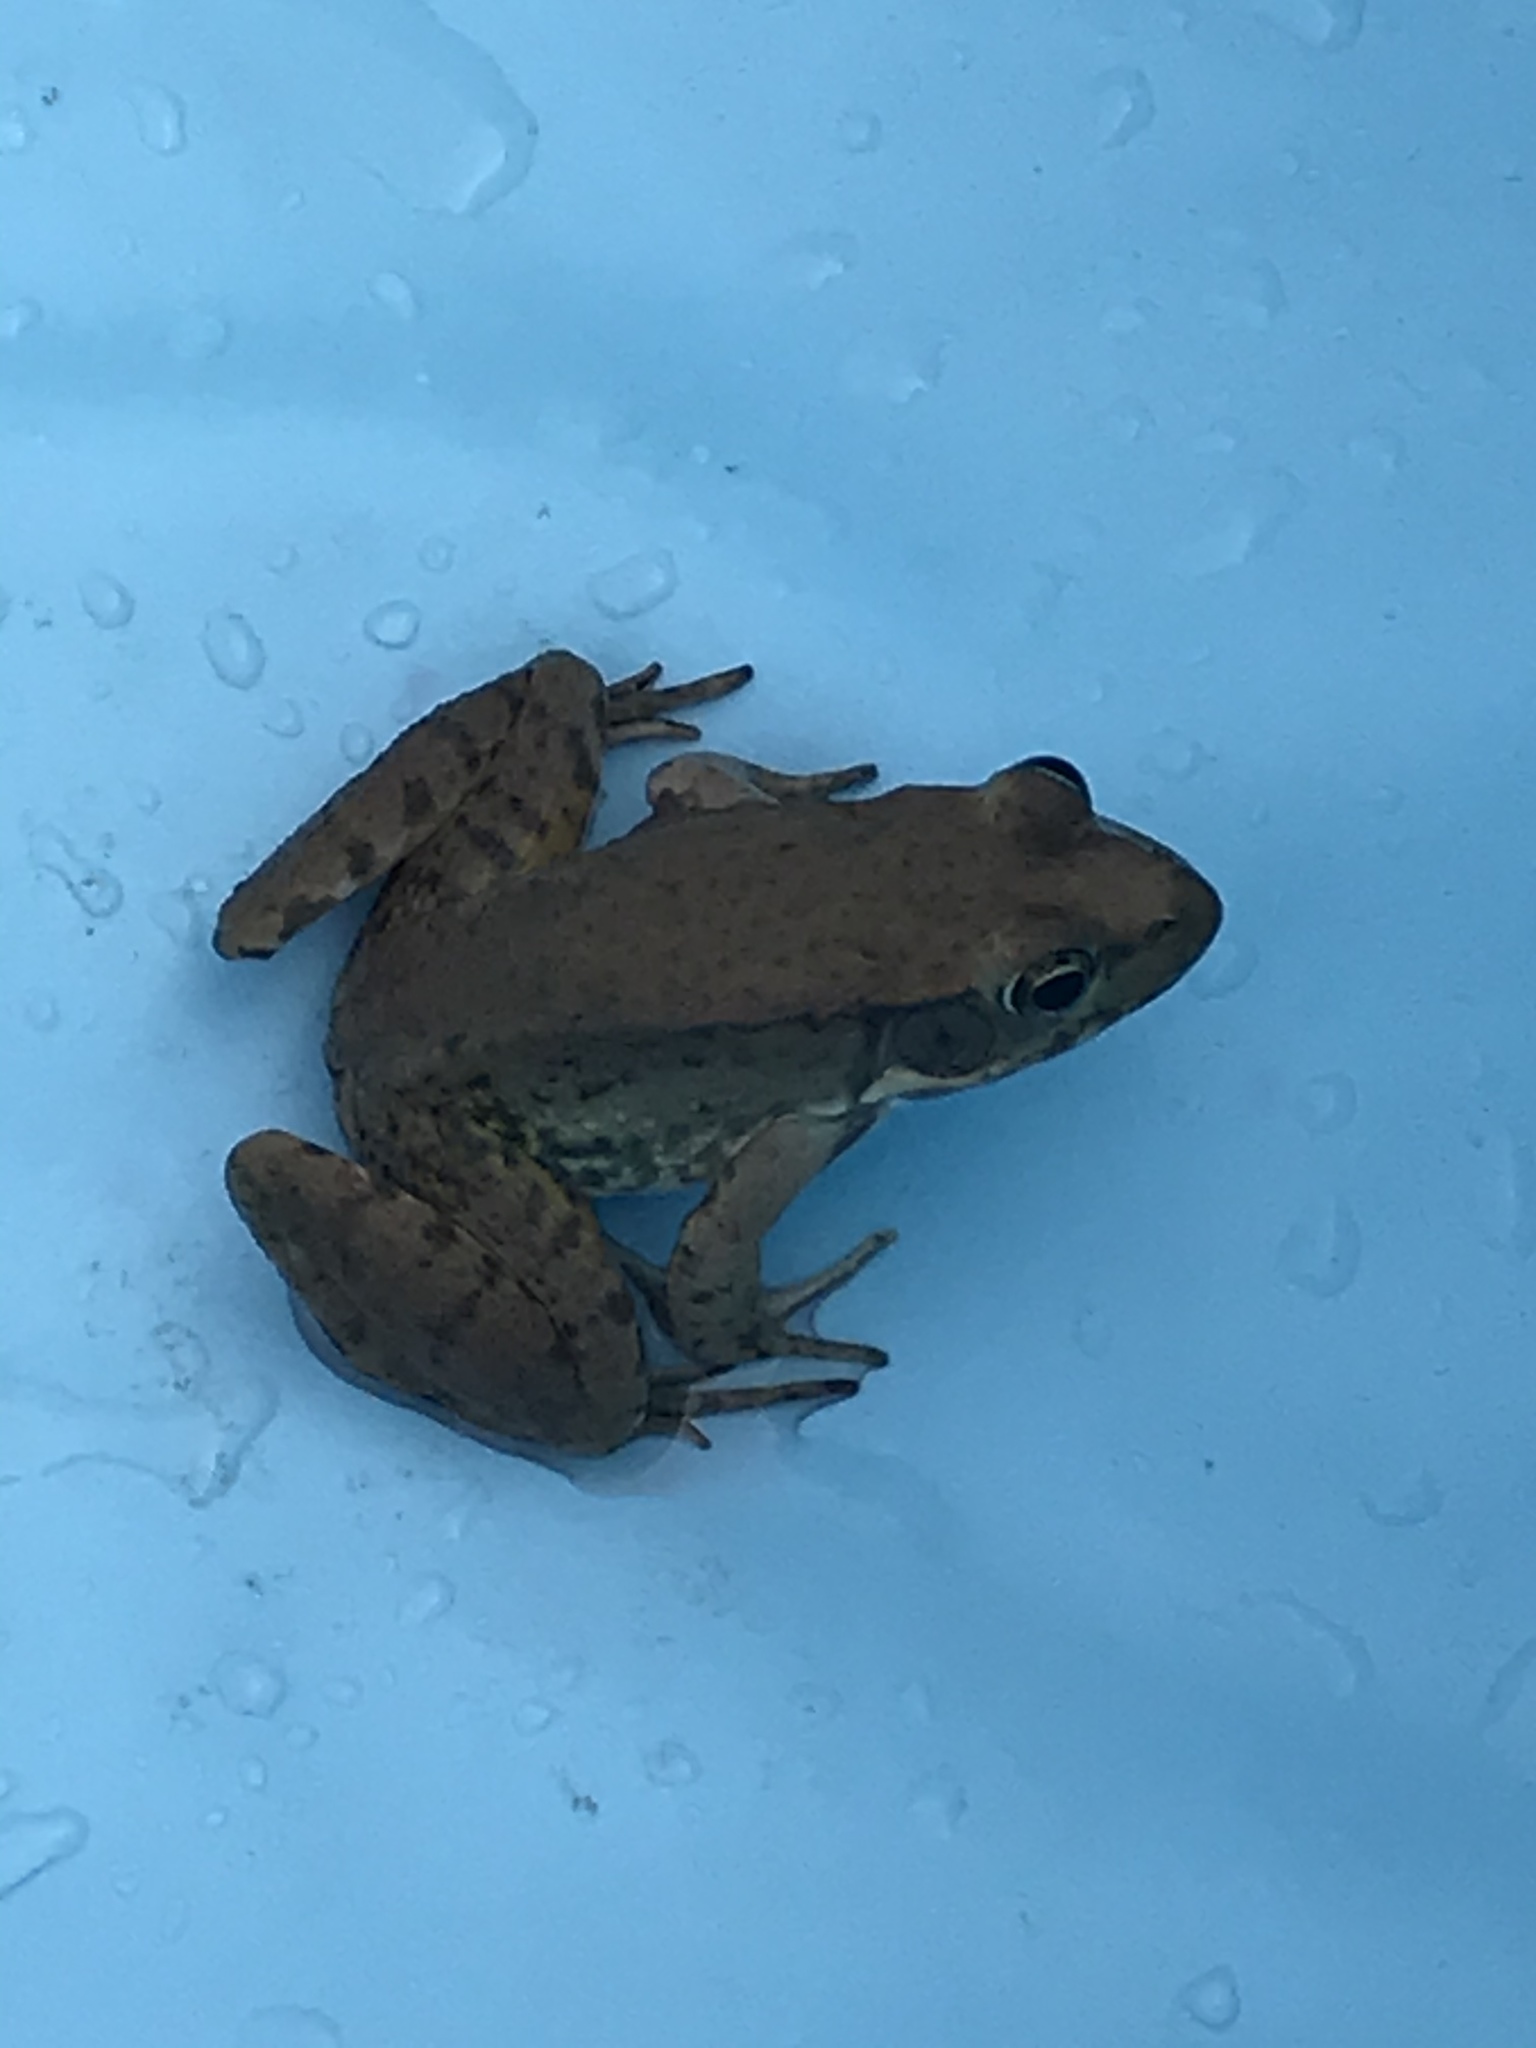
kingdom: Animalia
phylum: Chordata
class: Amphibia
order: Anura
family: Ranidae
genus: Lithobates
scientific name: Lithobates clamitans
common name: Green frog
